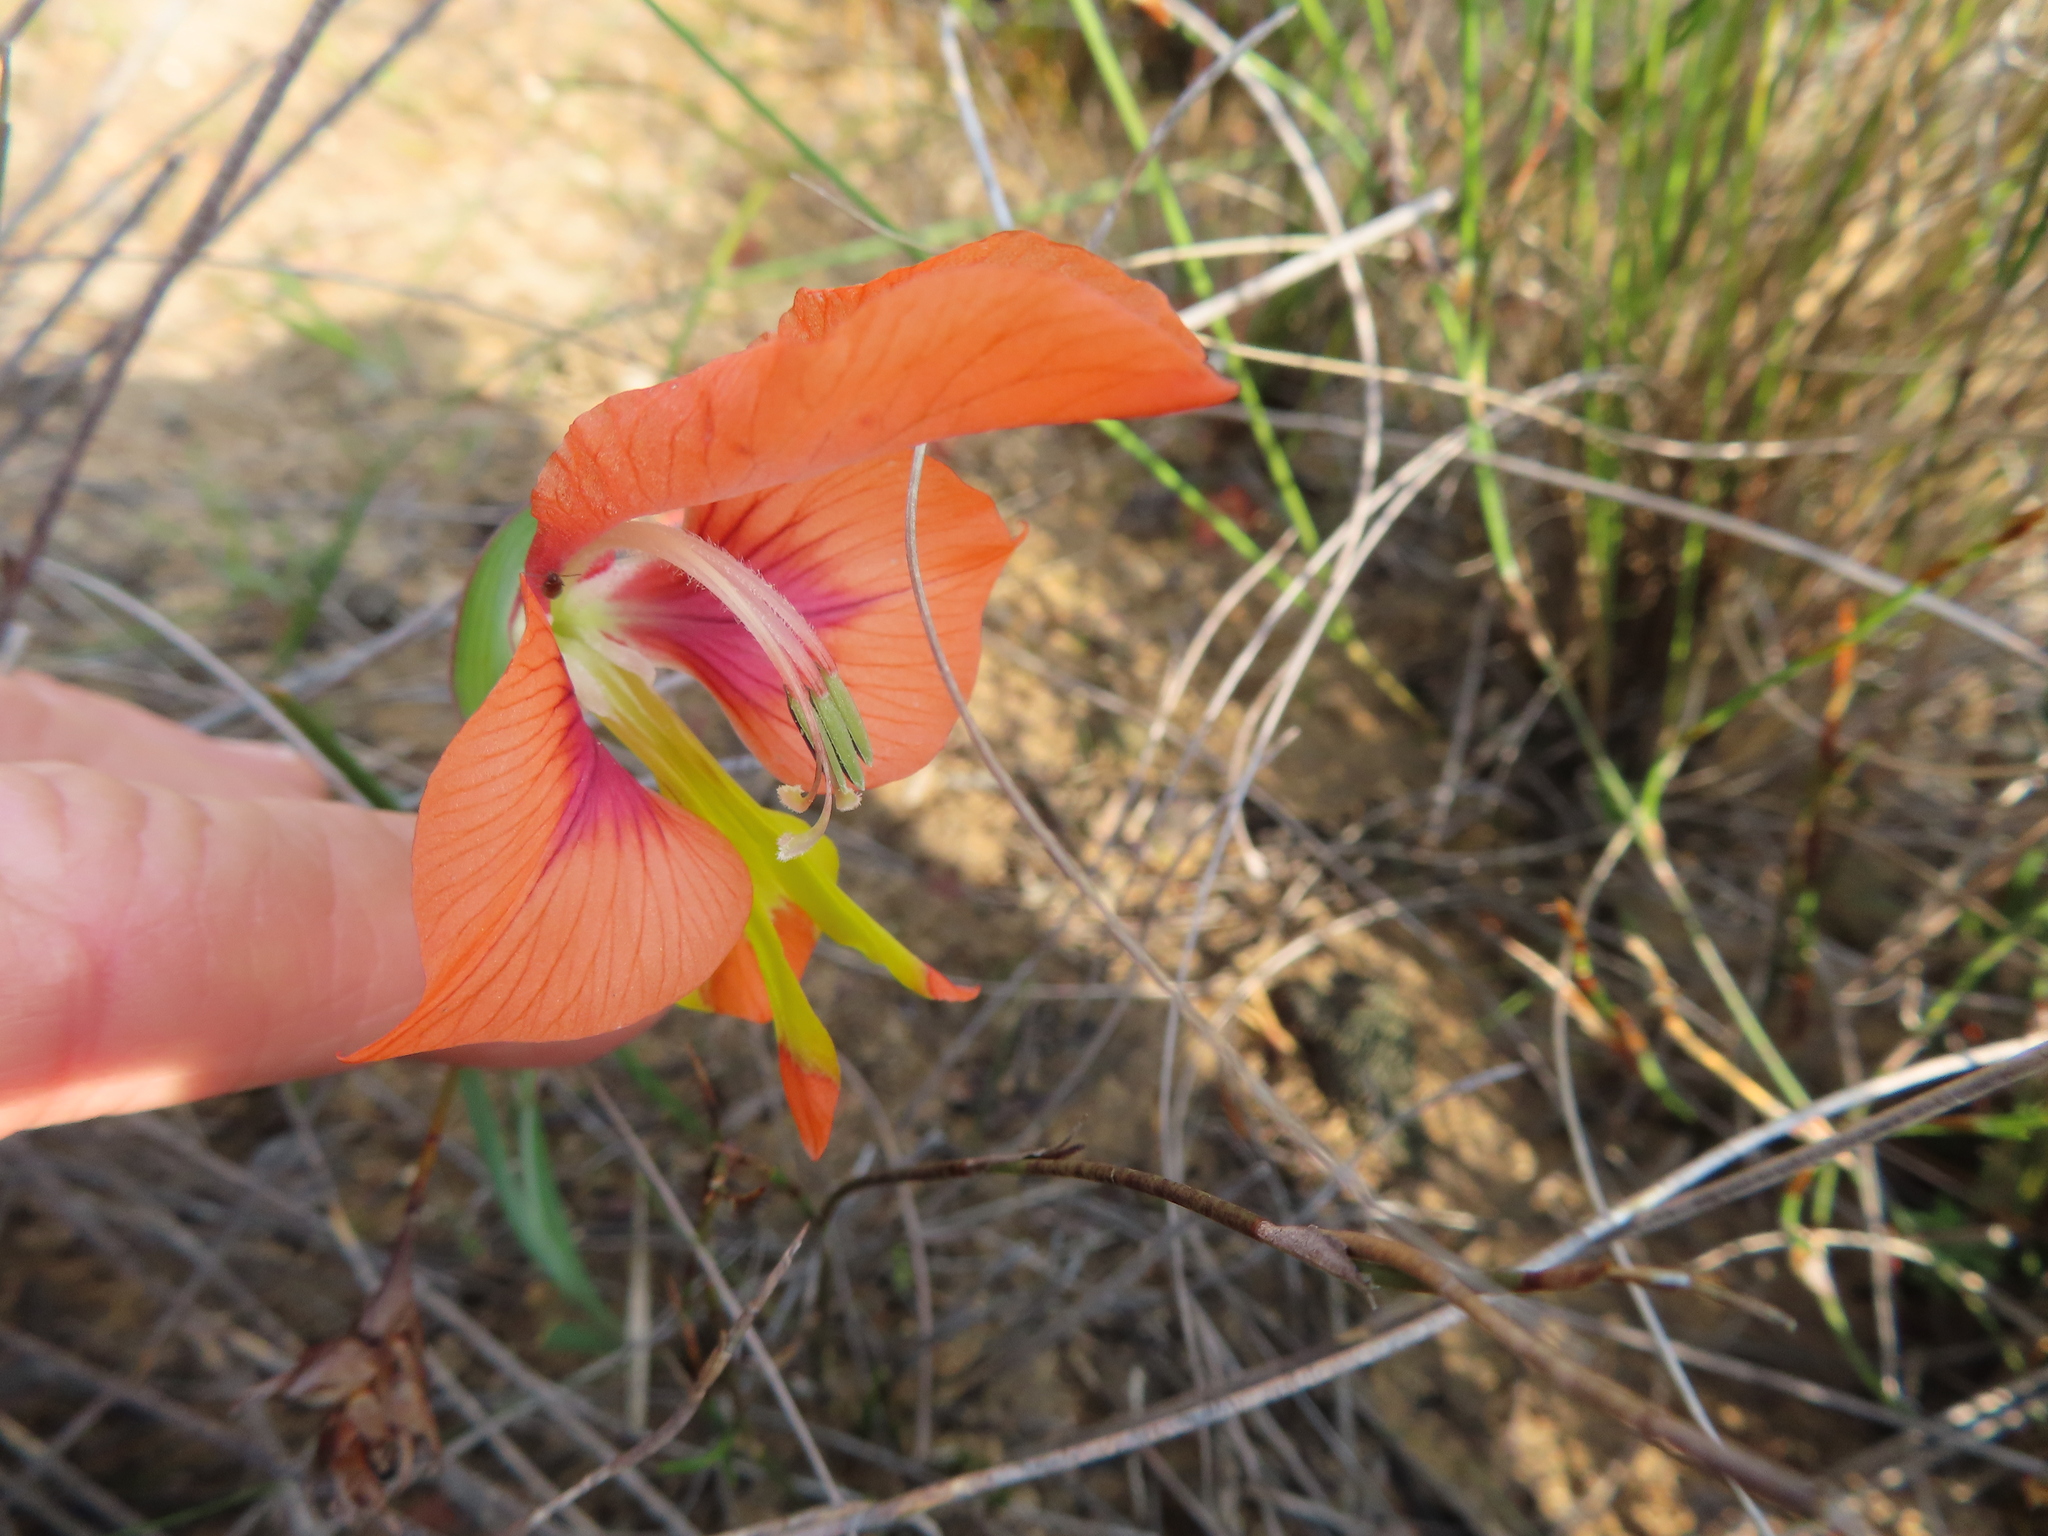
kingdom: Plantae
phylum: Tracheophyta
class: Liliopsida
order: Asparagales
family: Iridaceae
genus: Gladiolus
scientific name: Gladiolus alatus
